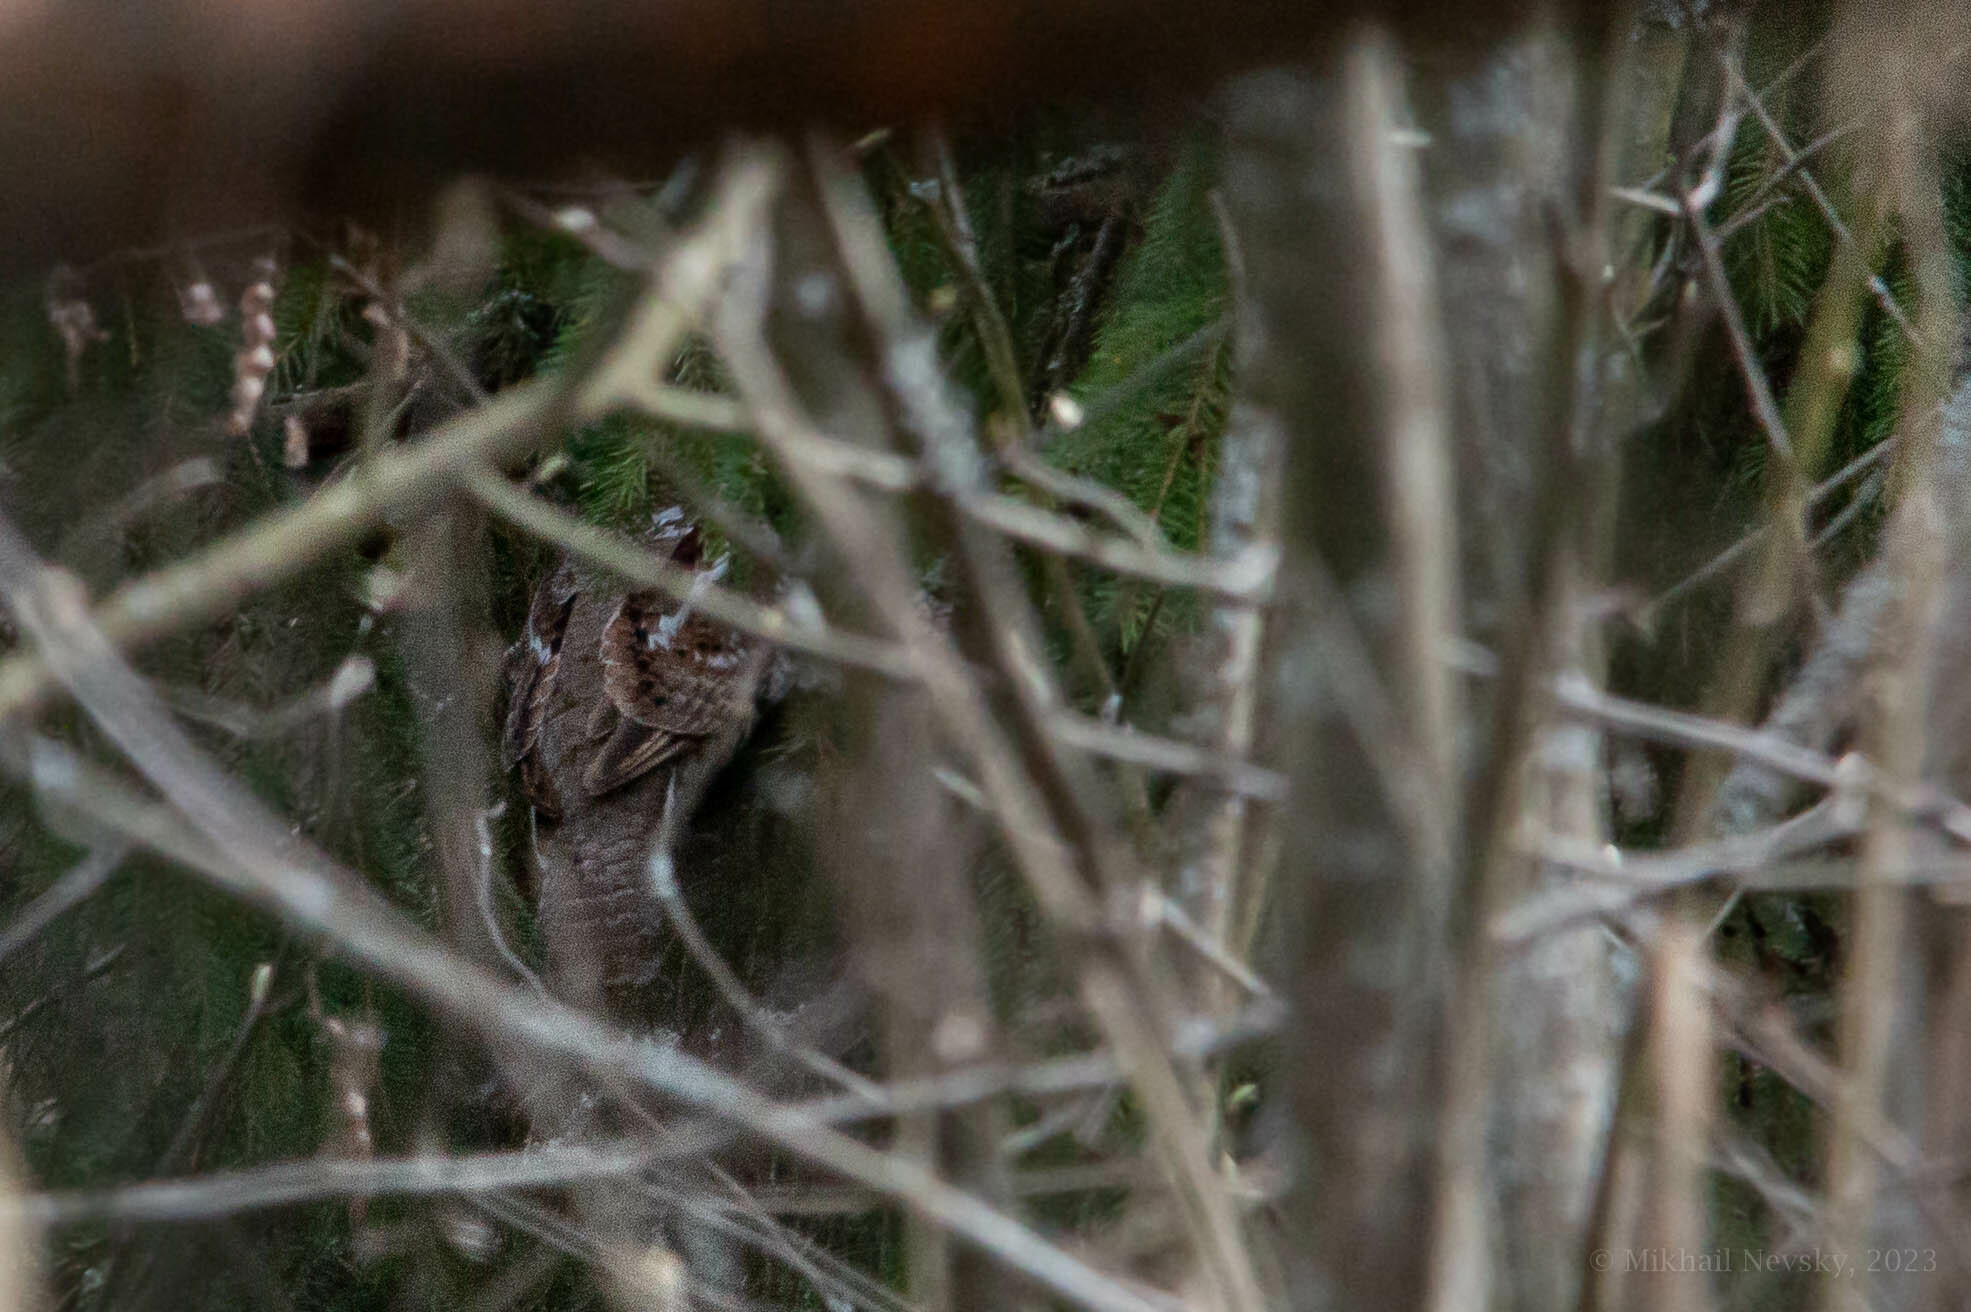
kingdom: Animalia
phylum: Chordata
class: Aves
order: Galliformes
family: Phasianidae
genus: Tetrastes
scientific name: Tetrastes bonasia
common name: Hazel grouse
